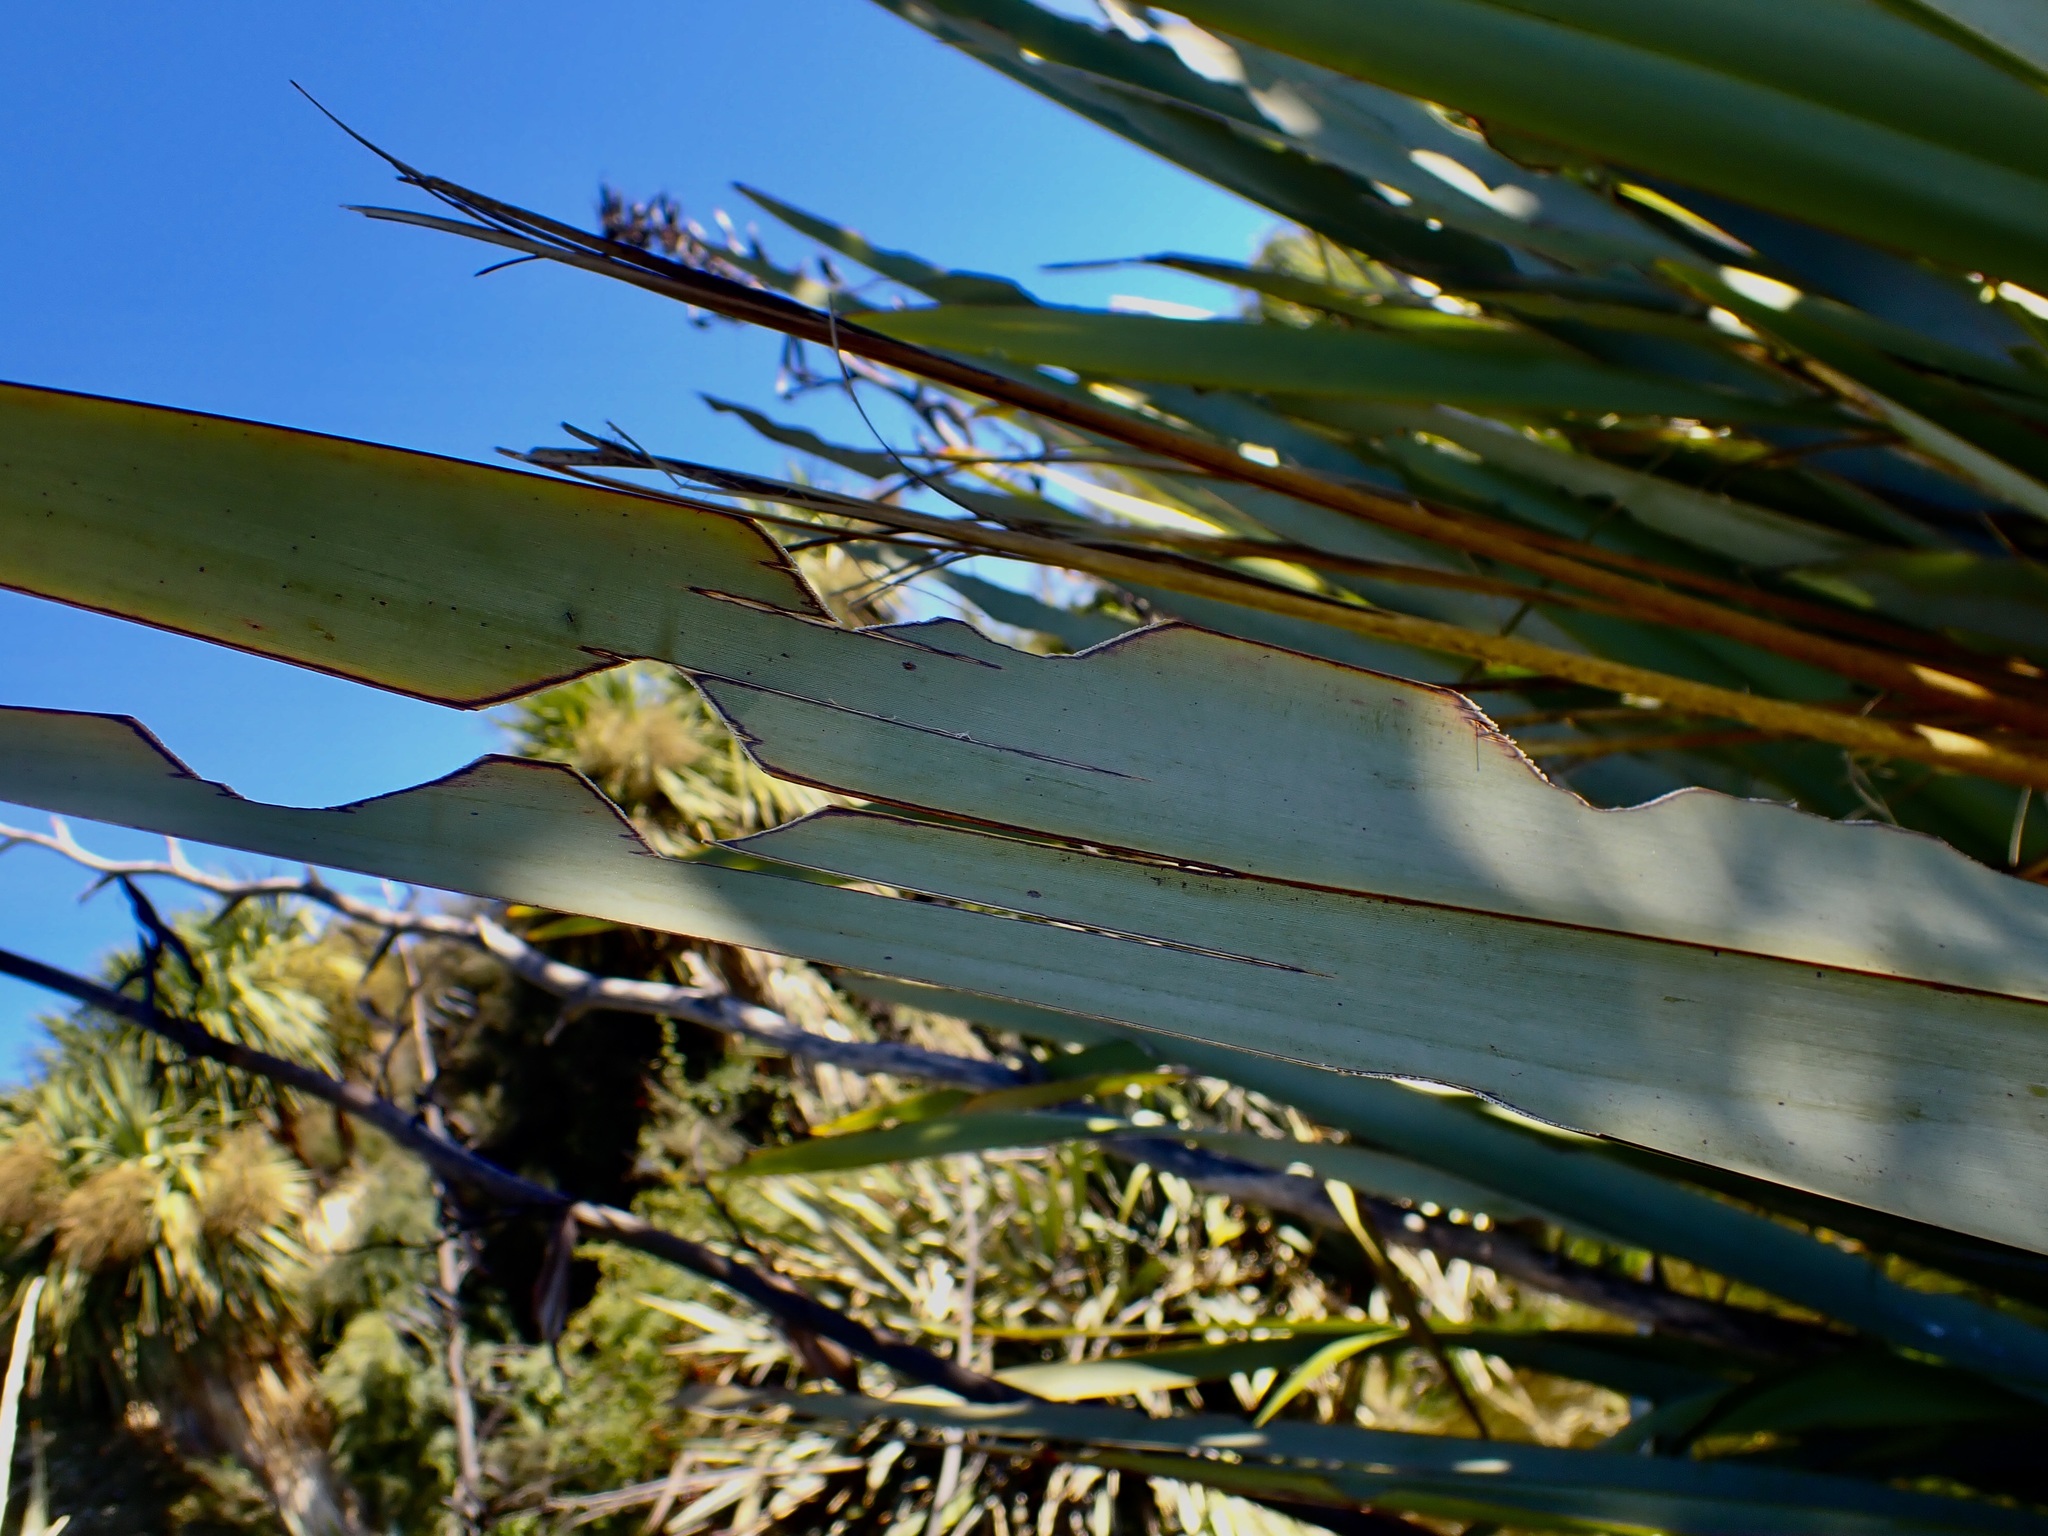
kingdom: Animalia
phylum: Arthropoda
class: Insecta
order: Lepidoptera
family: Noctuidae
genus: Ichneutica
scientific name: Ichneutica
